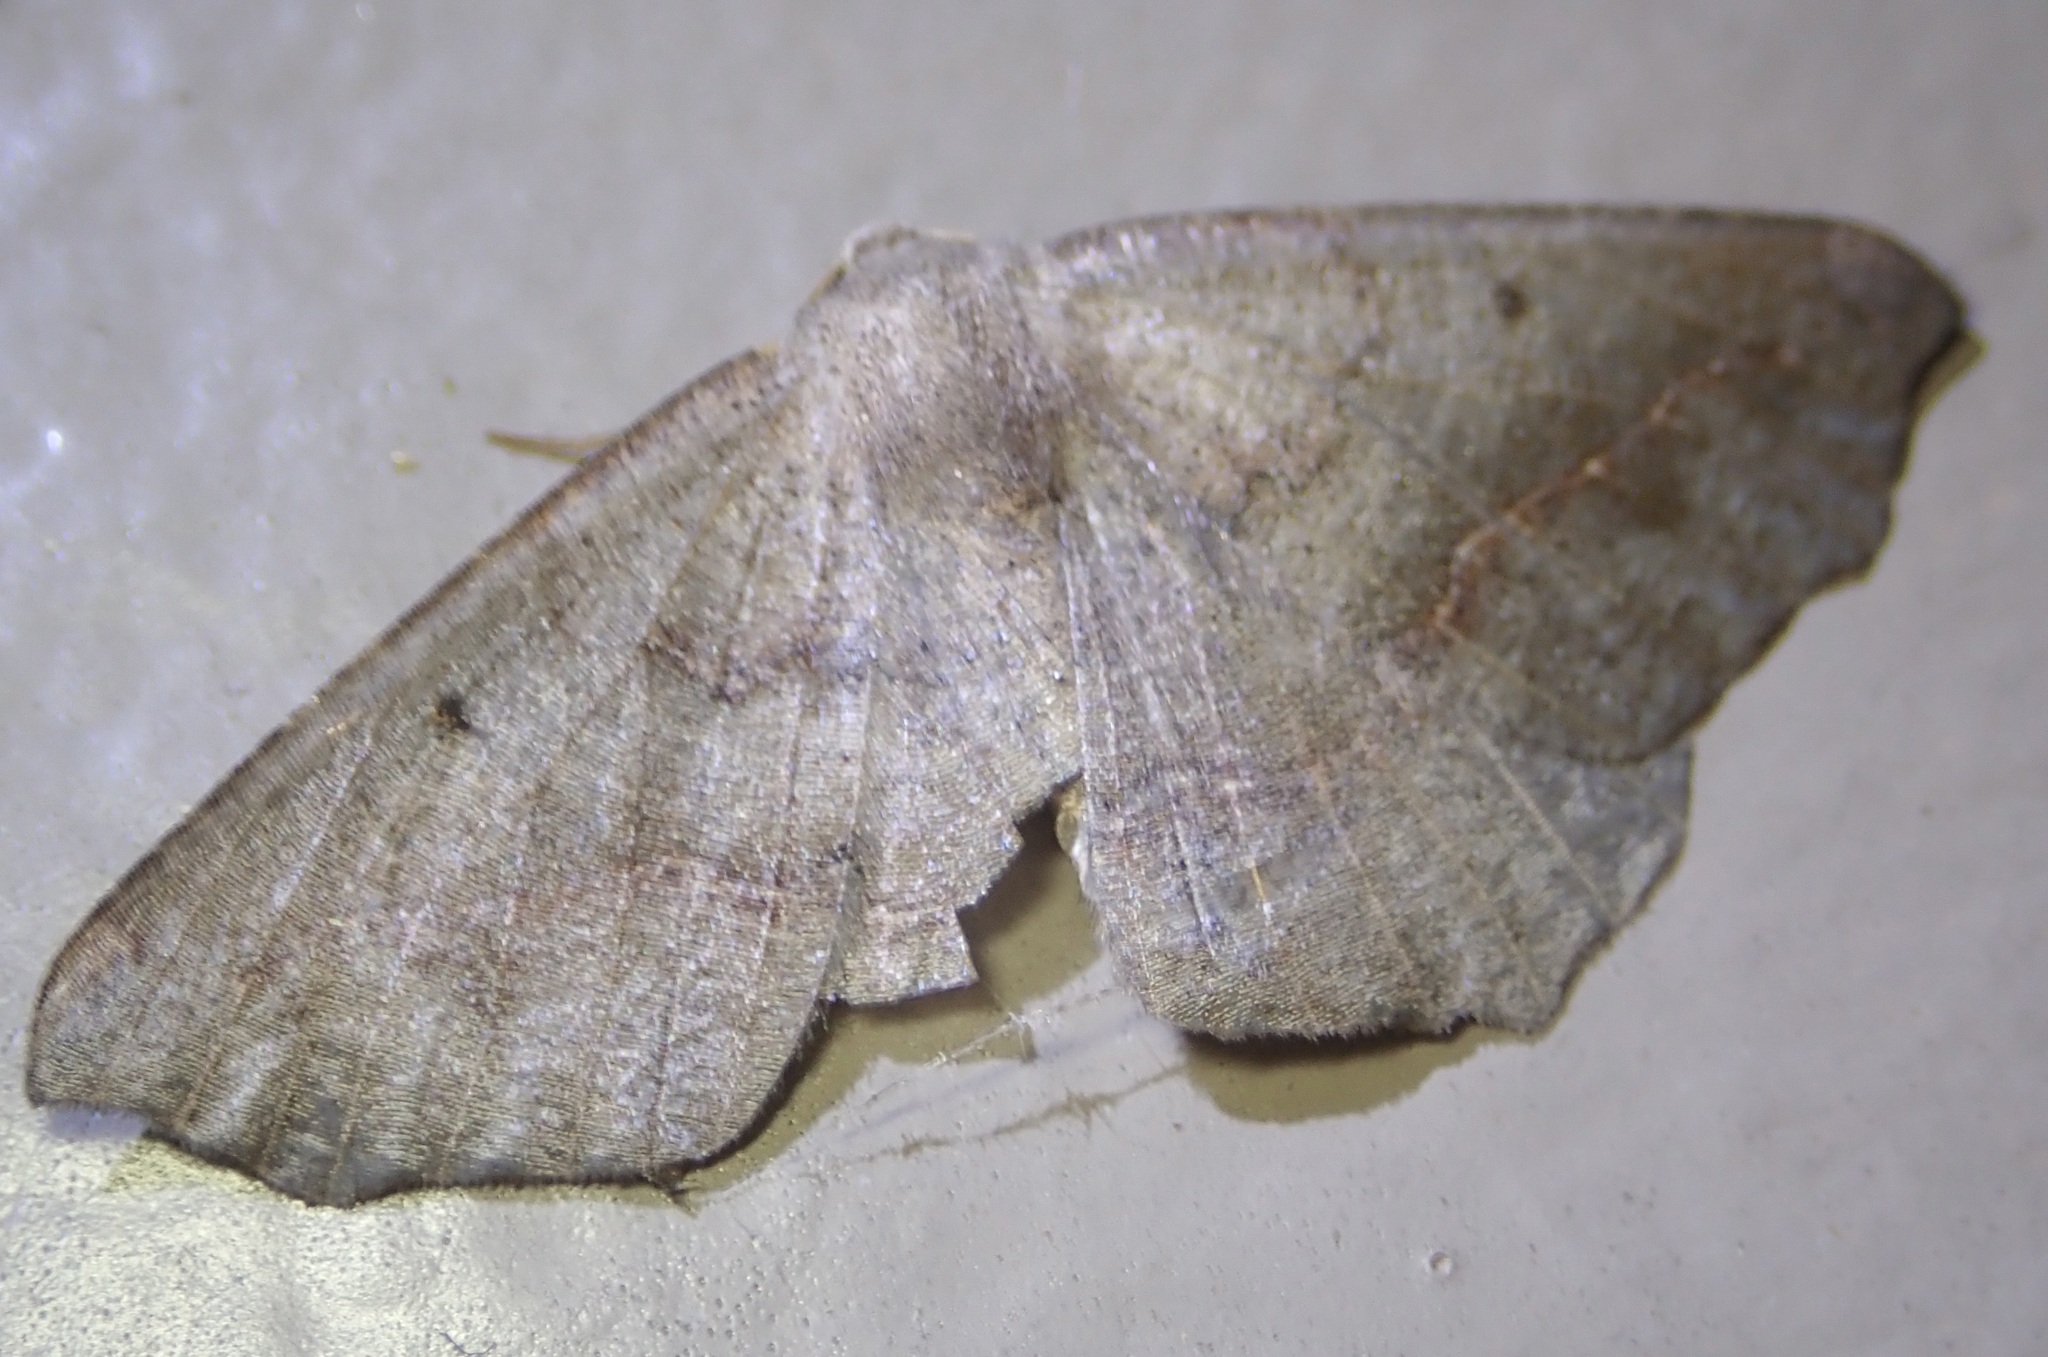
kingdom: Animalia
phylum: Arthropoda
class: Insecta
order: Lepidoptera
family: Geometridae
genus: Prochoerodes
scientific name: Prochoerodes forficaria
